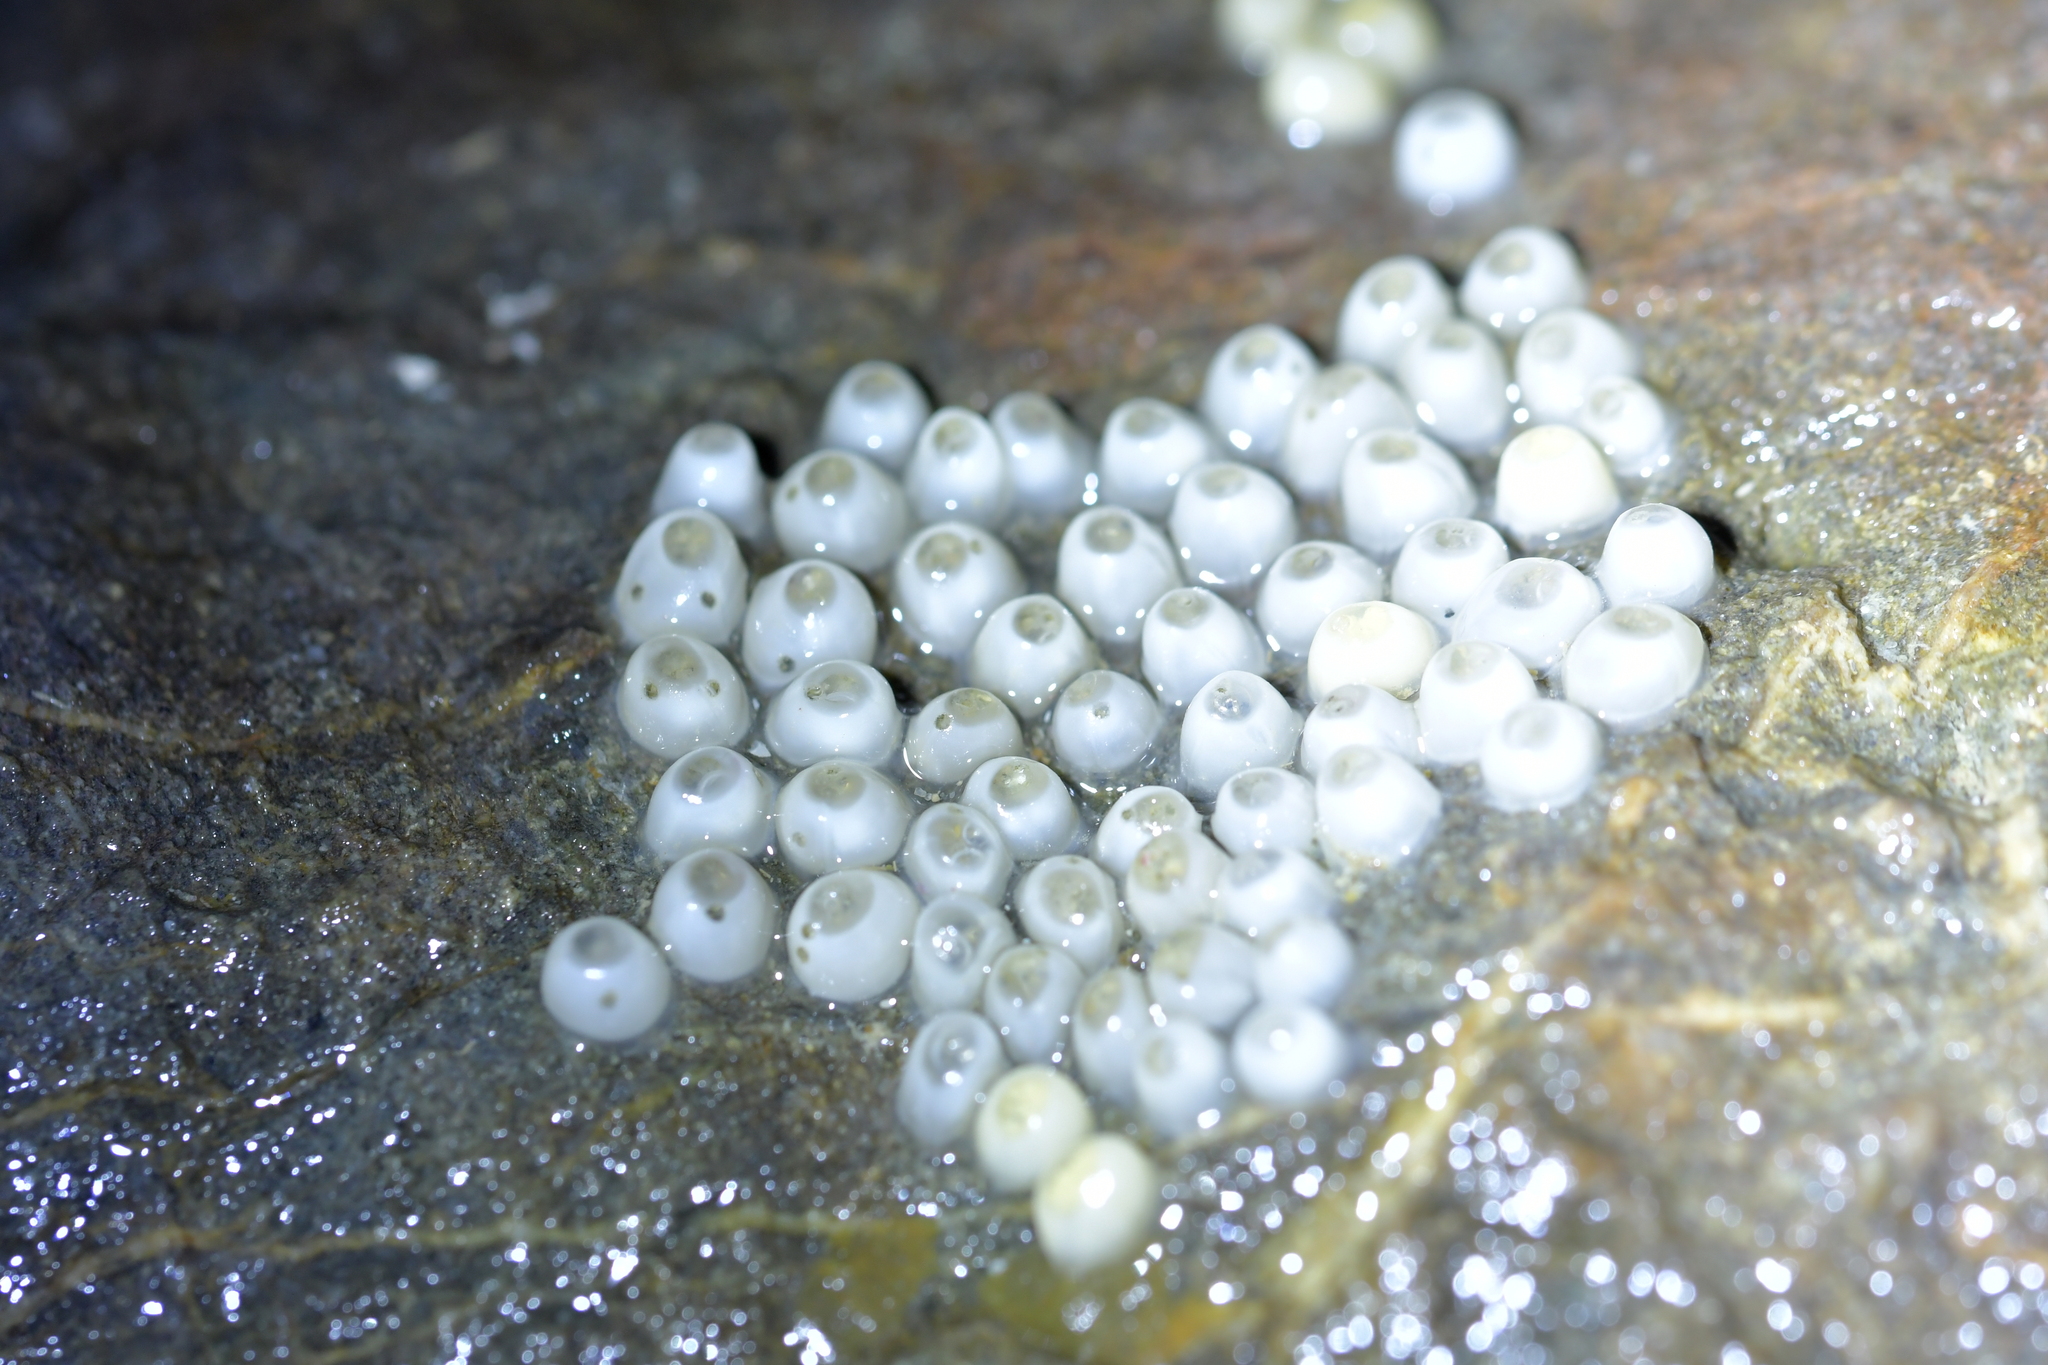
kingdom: Animalia
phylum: Mollusca
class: Gastropoda
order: Neogastropoda
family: Muricidae
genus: Haustrum
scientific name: Haustrum
